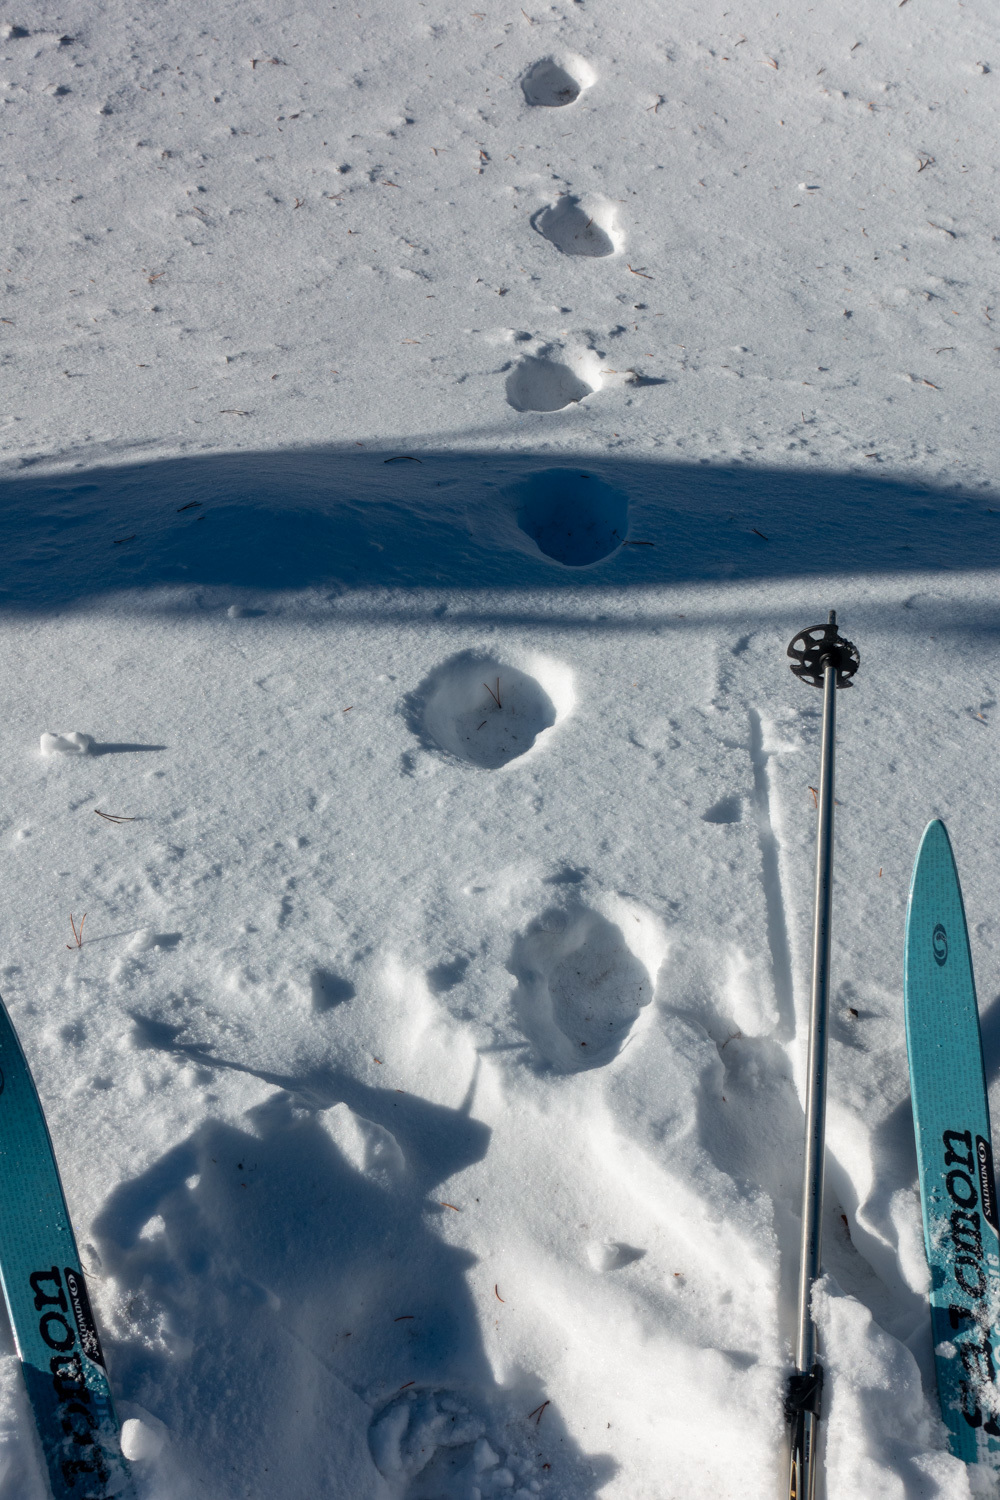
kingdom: Animalia
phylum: Chordata
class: Mammalia
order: Carnivora
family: Felidae
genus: Lynx
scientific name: Lynx canadensis
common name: Canadian lynx
